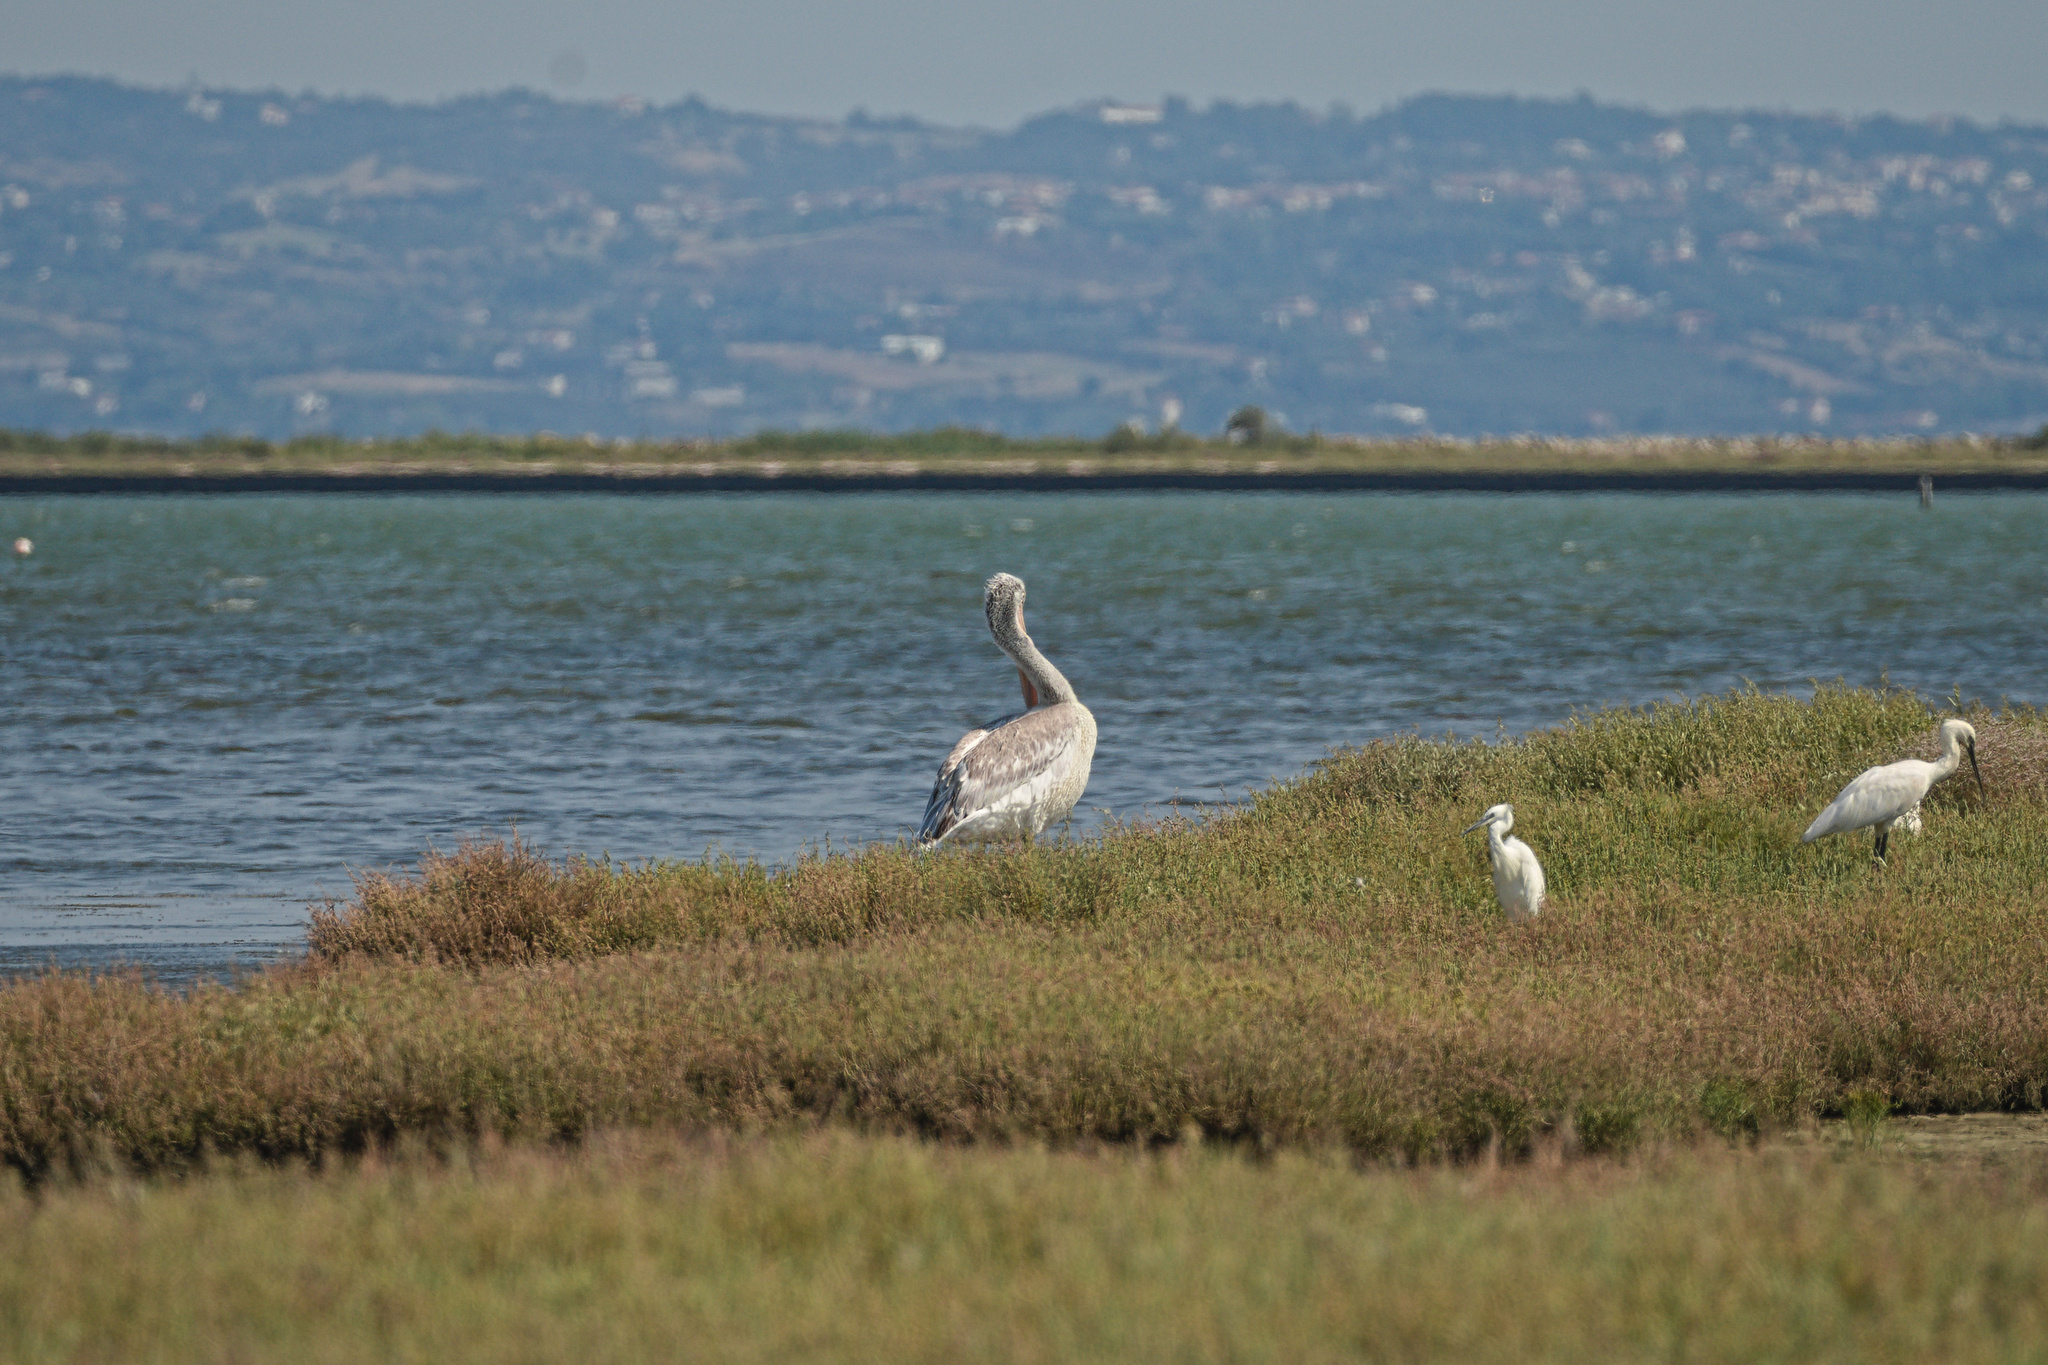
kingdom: Animalia
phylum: Chordata
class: Aves
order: Pelecaniformes
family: Pelecanidae
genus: Pelecanus
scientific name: Pelecanus crispus
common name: Dalmatian pelican
